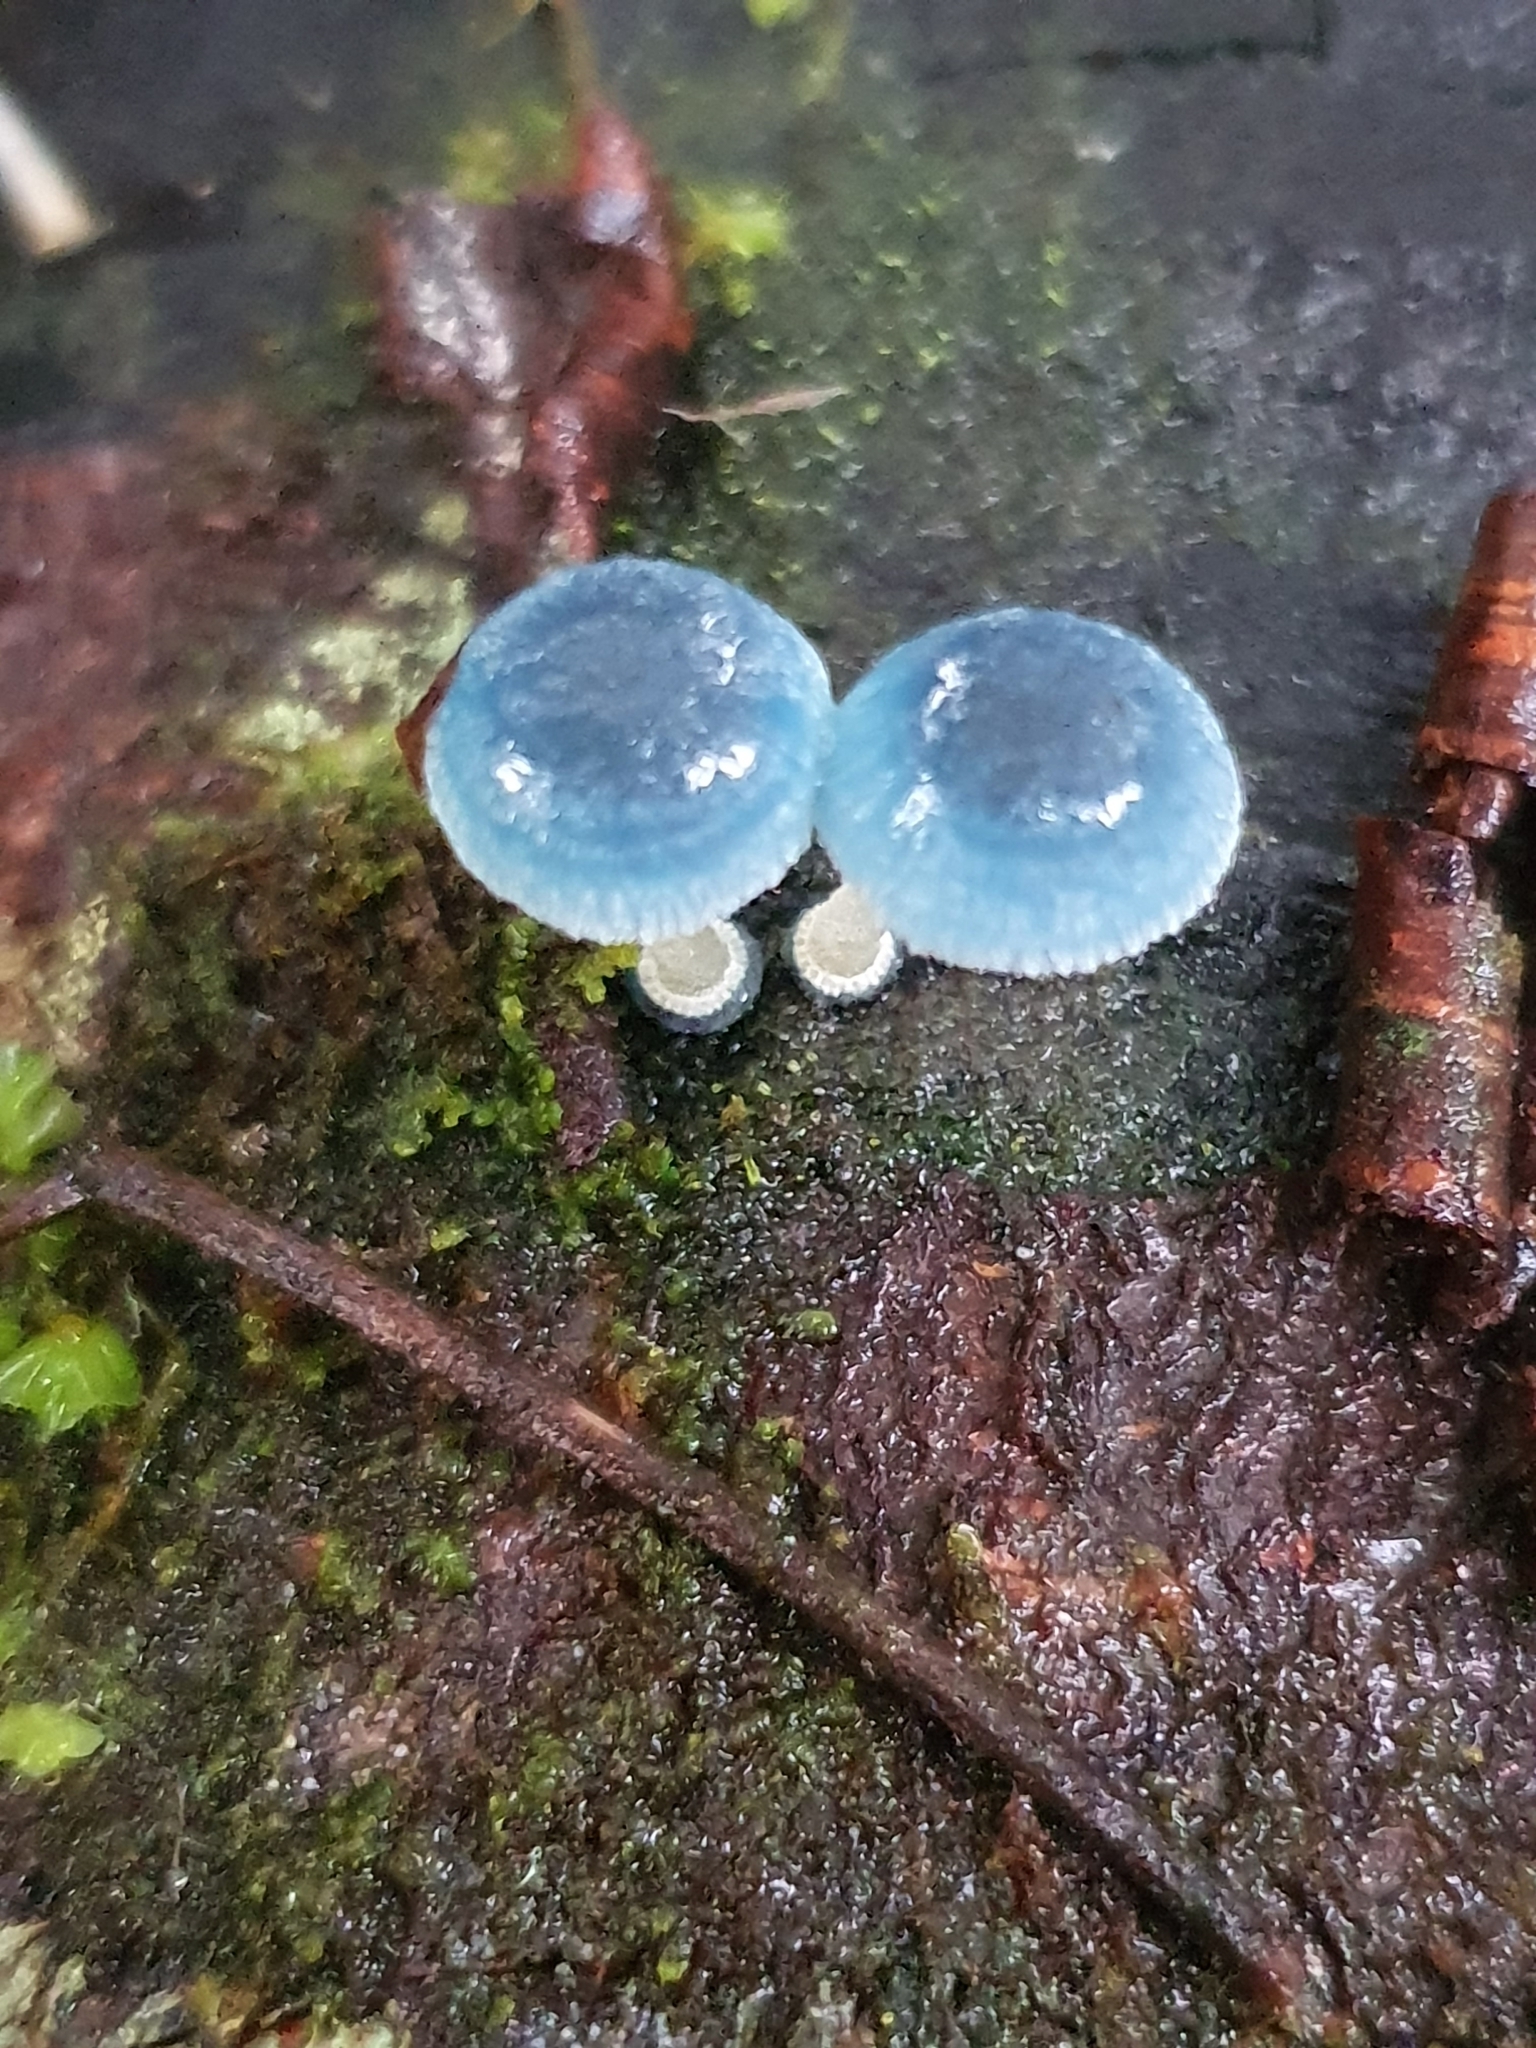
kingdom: Fungi
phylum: Basidiomycota
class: Agaricomycetes
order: Agaricales
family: Mycenaceae
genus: Mycena
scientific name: Mycena interrupta
